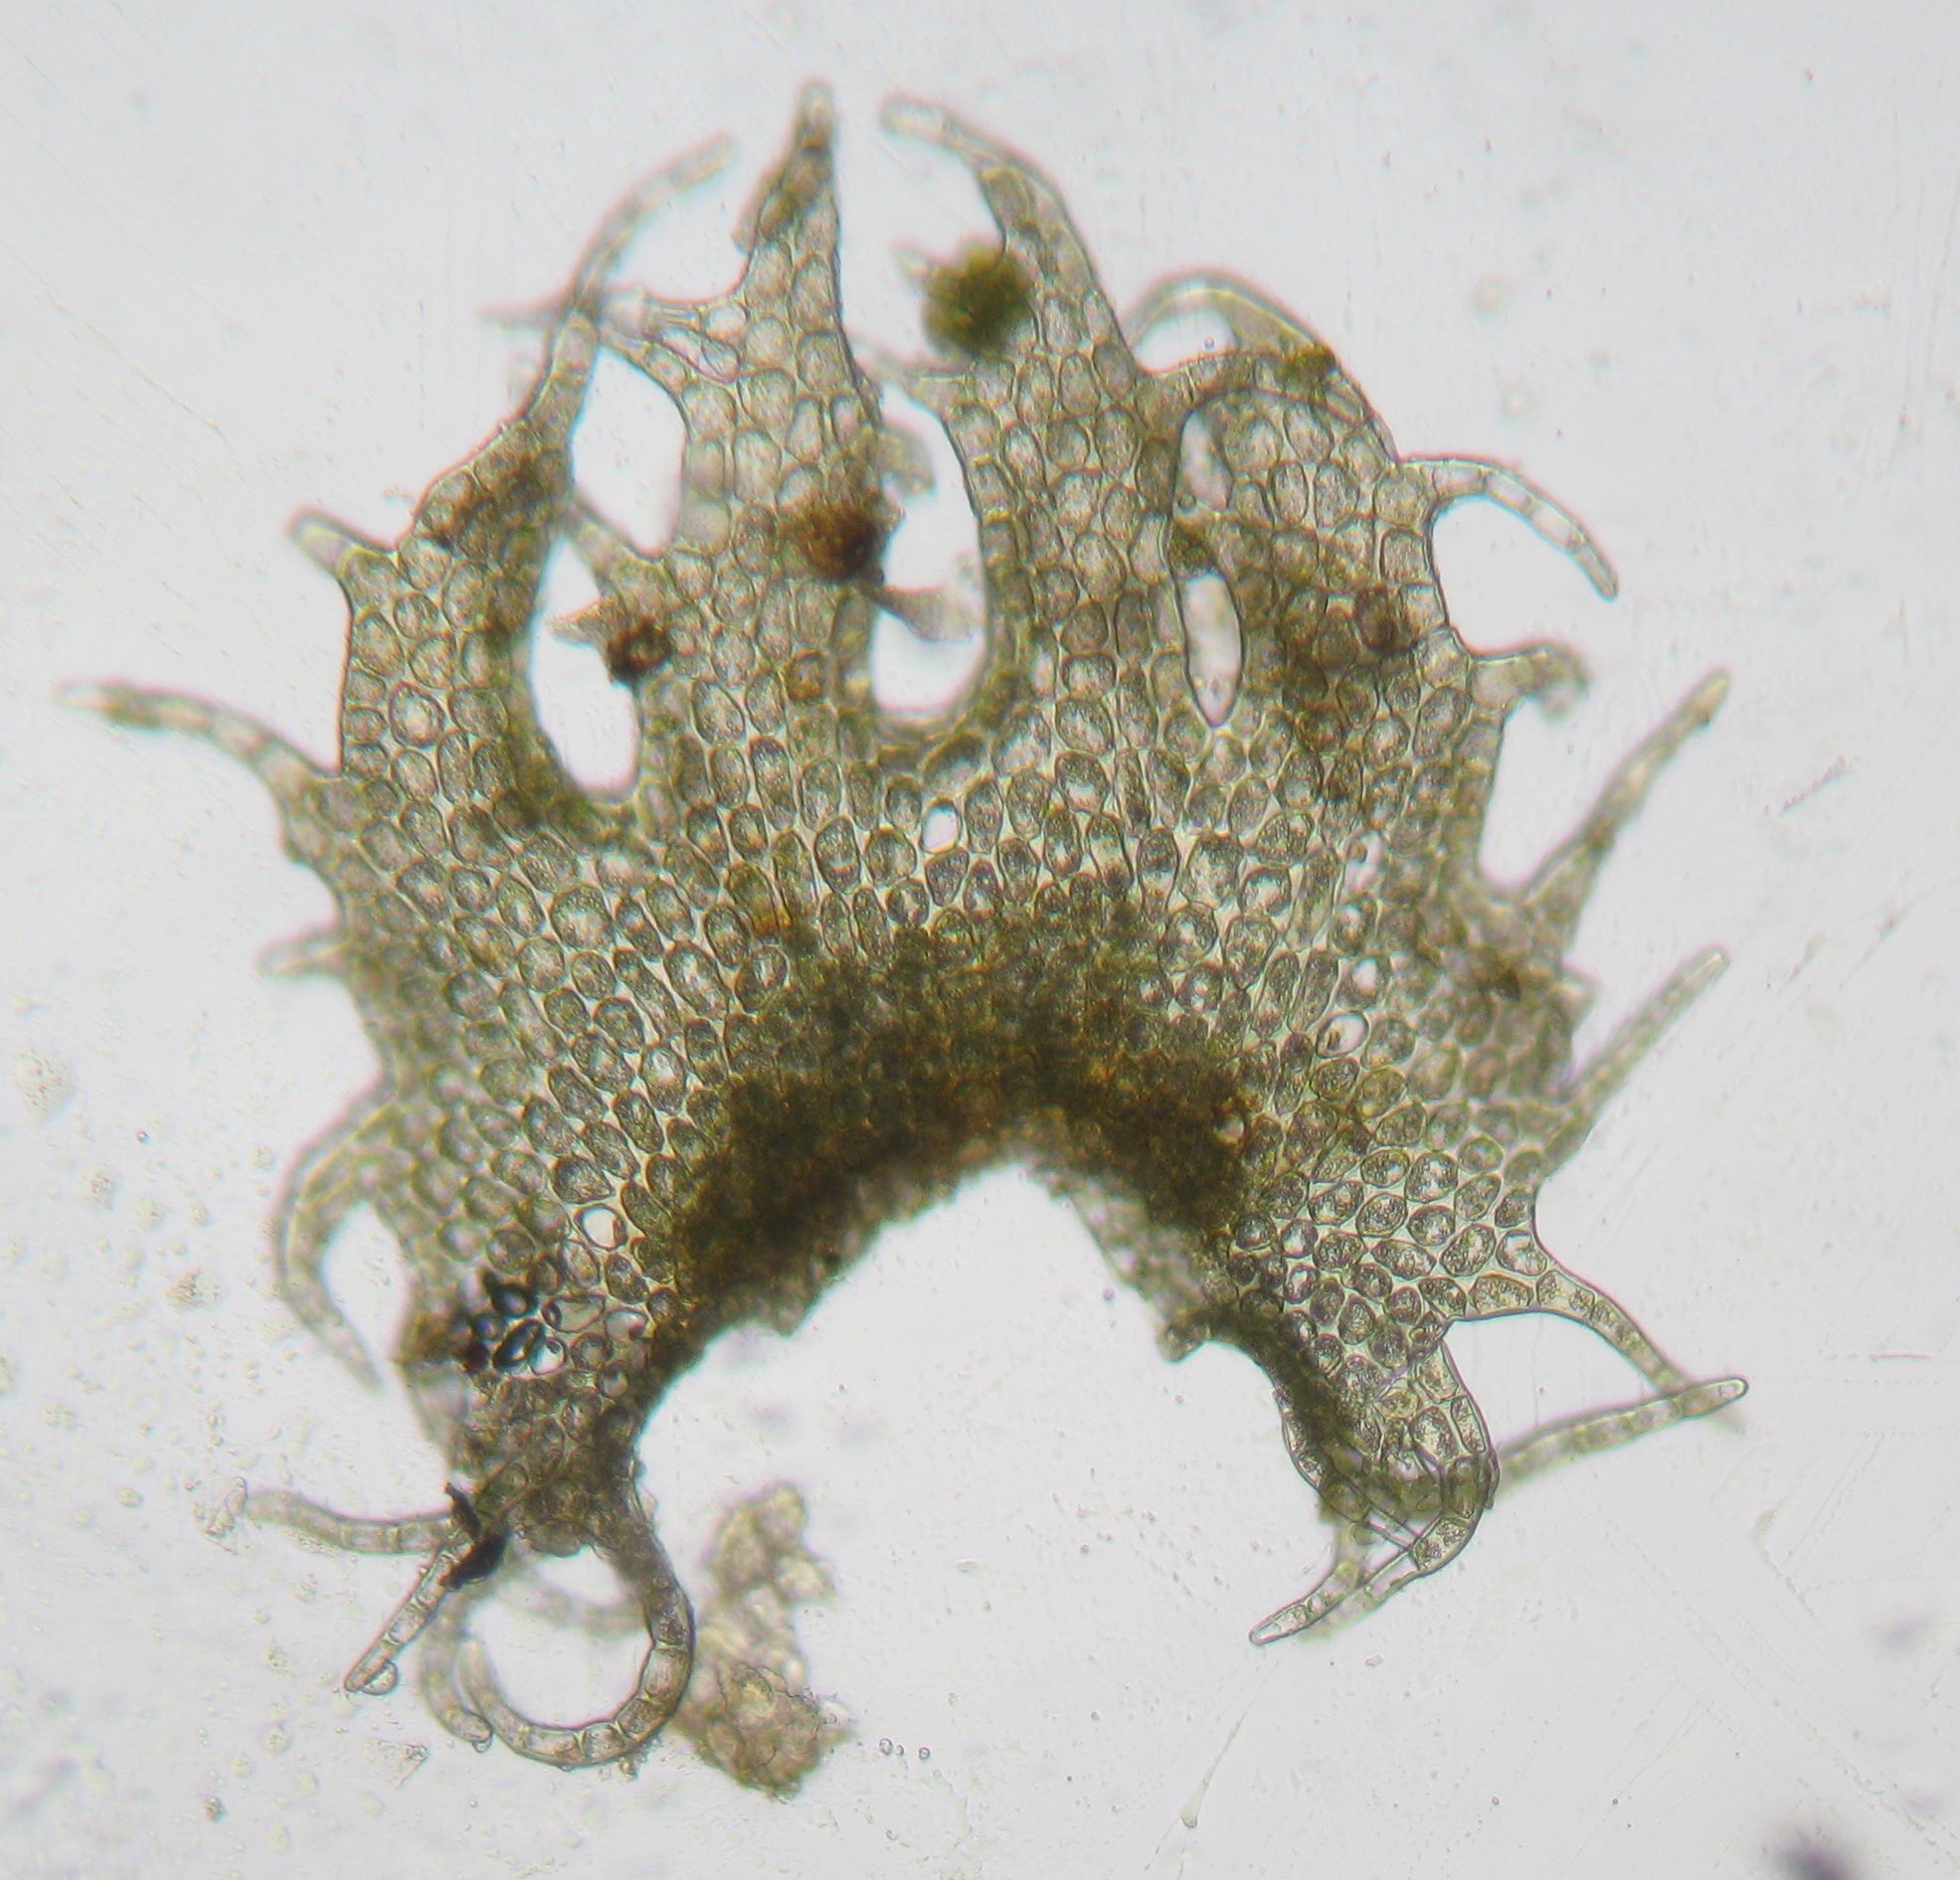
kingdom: Plantae
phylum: Marchantiophyta
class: Jungermanniopsida
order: Porellales
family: Lepidolaenaceae
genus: Lepidolaena
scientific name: Lepidolaena taylorii
